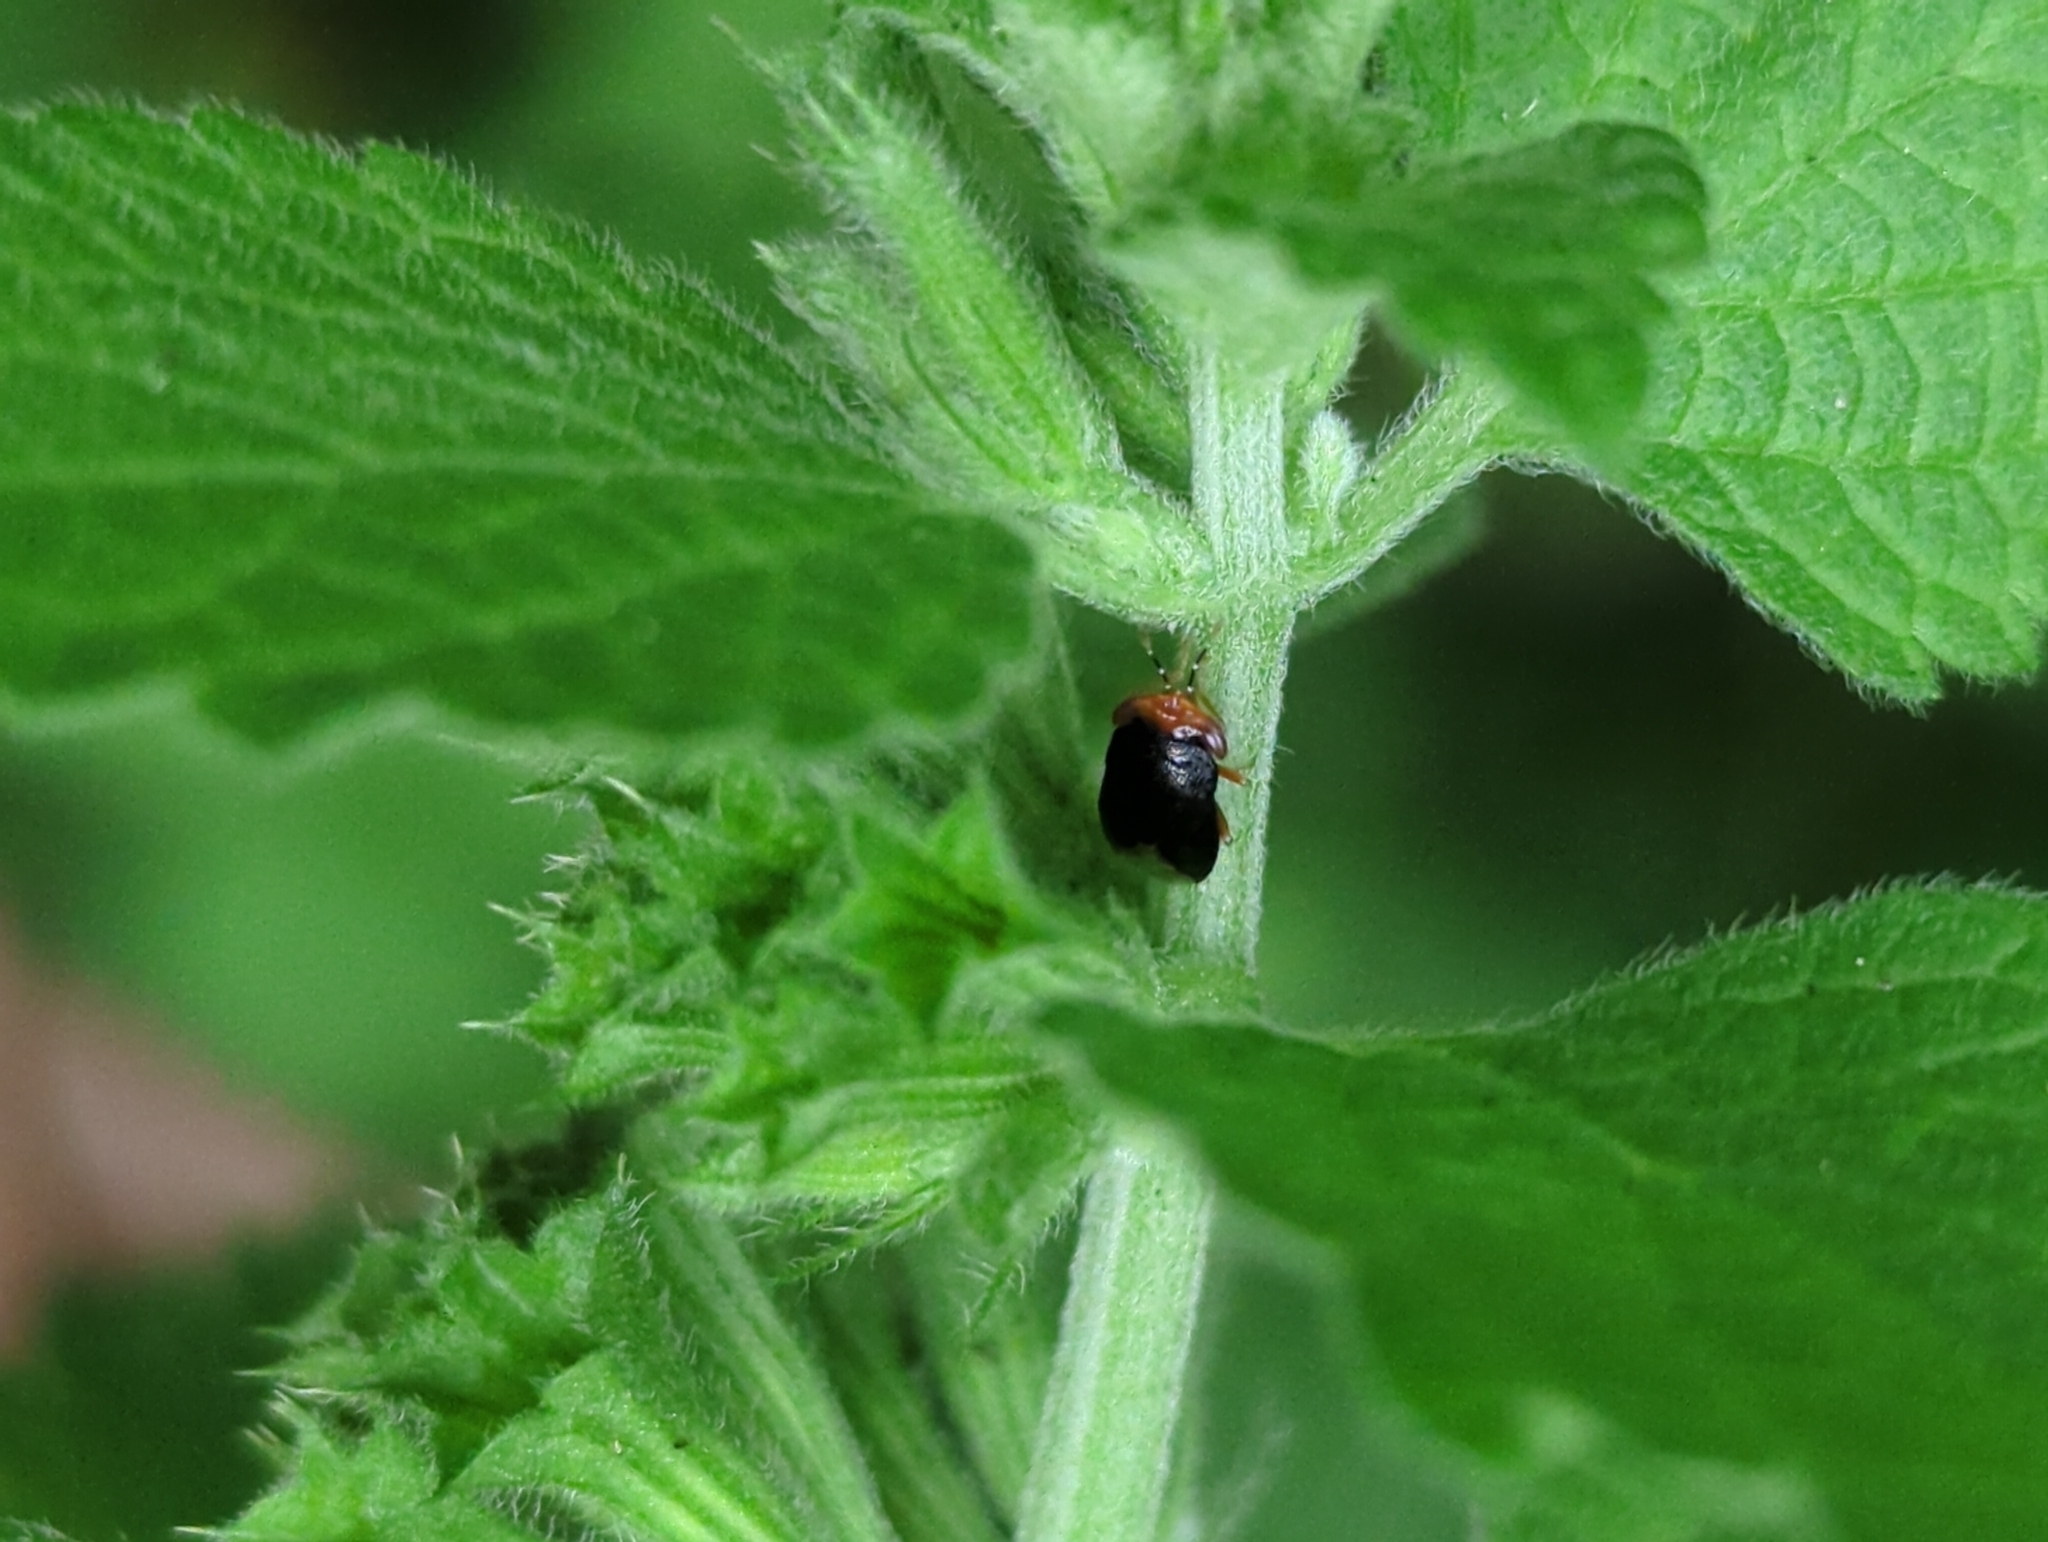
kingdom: Animalia
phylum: Arthropoda
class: Insecta
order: Hemiptera
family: Geocoridae
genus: Geocoris
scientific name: Geocoris erythrocephala
